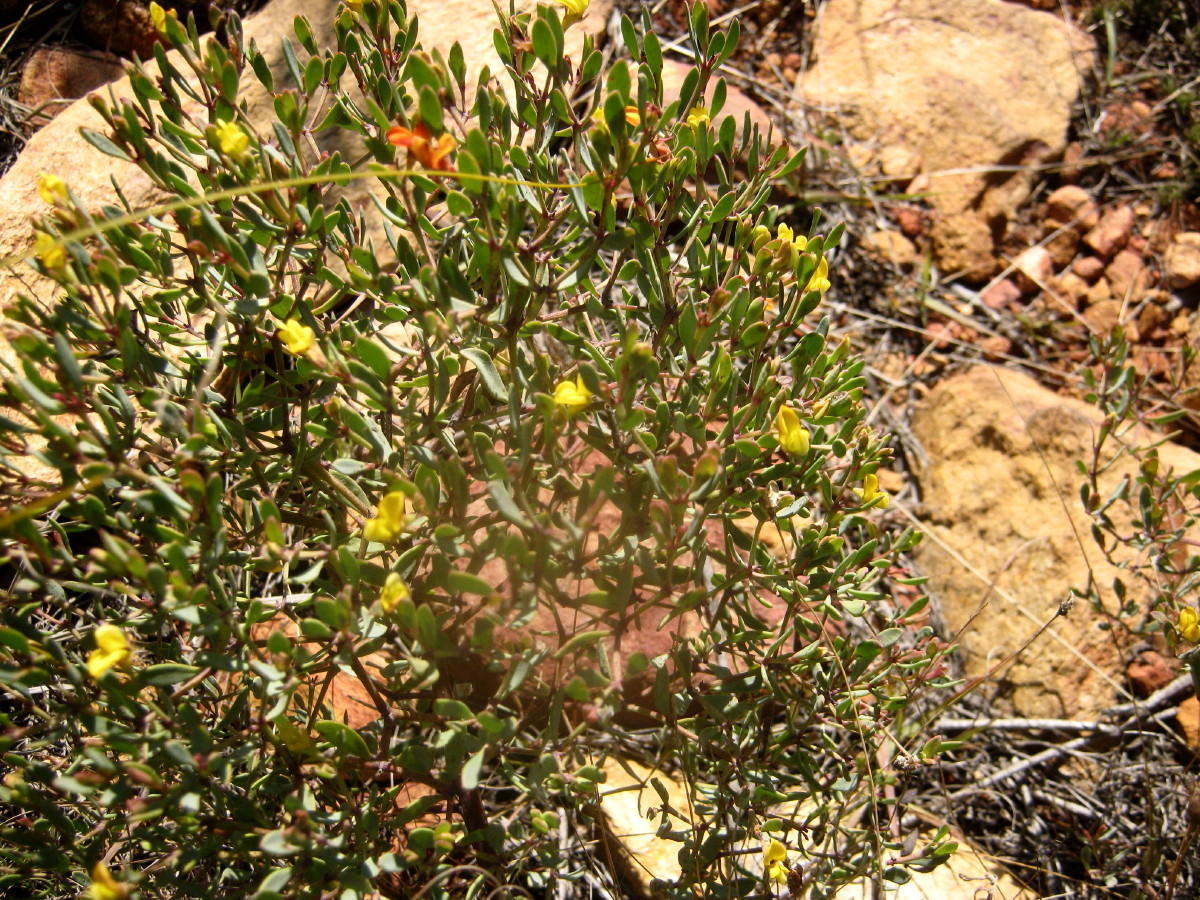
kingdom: Plantae
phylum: Tracheophyta
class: Magnoliopsida
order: Fabales
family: Fabaceae
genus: Rafnia
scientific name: Rafnia capensis
